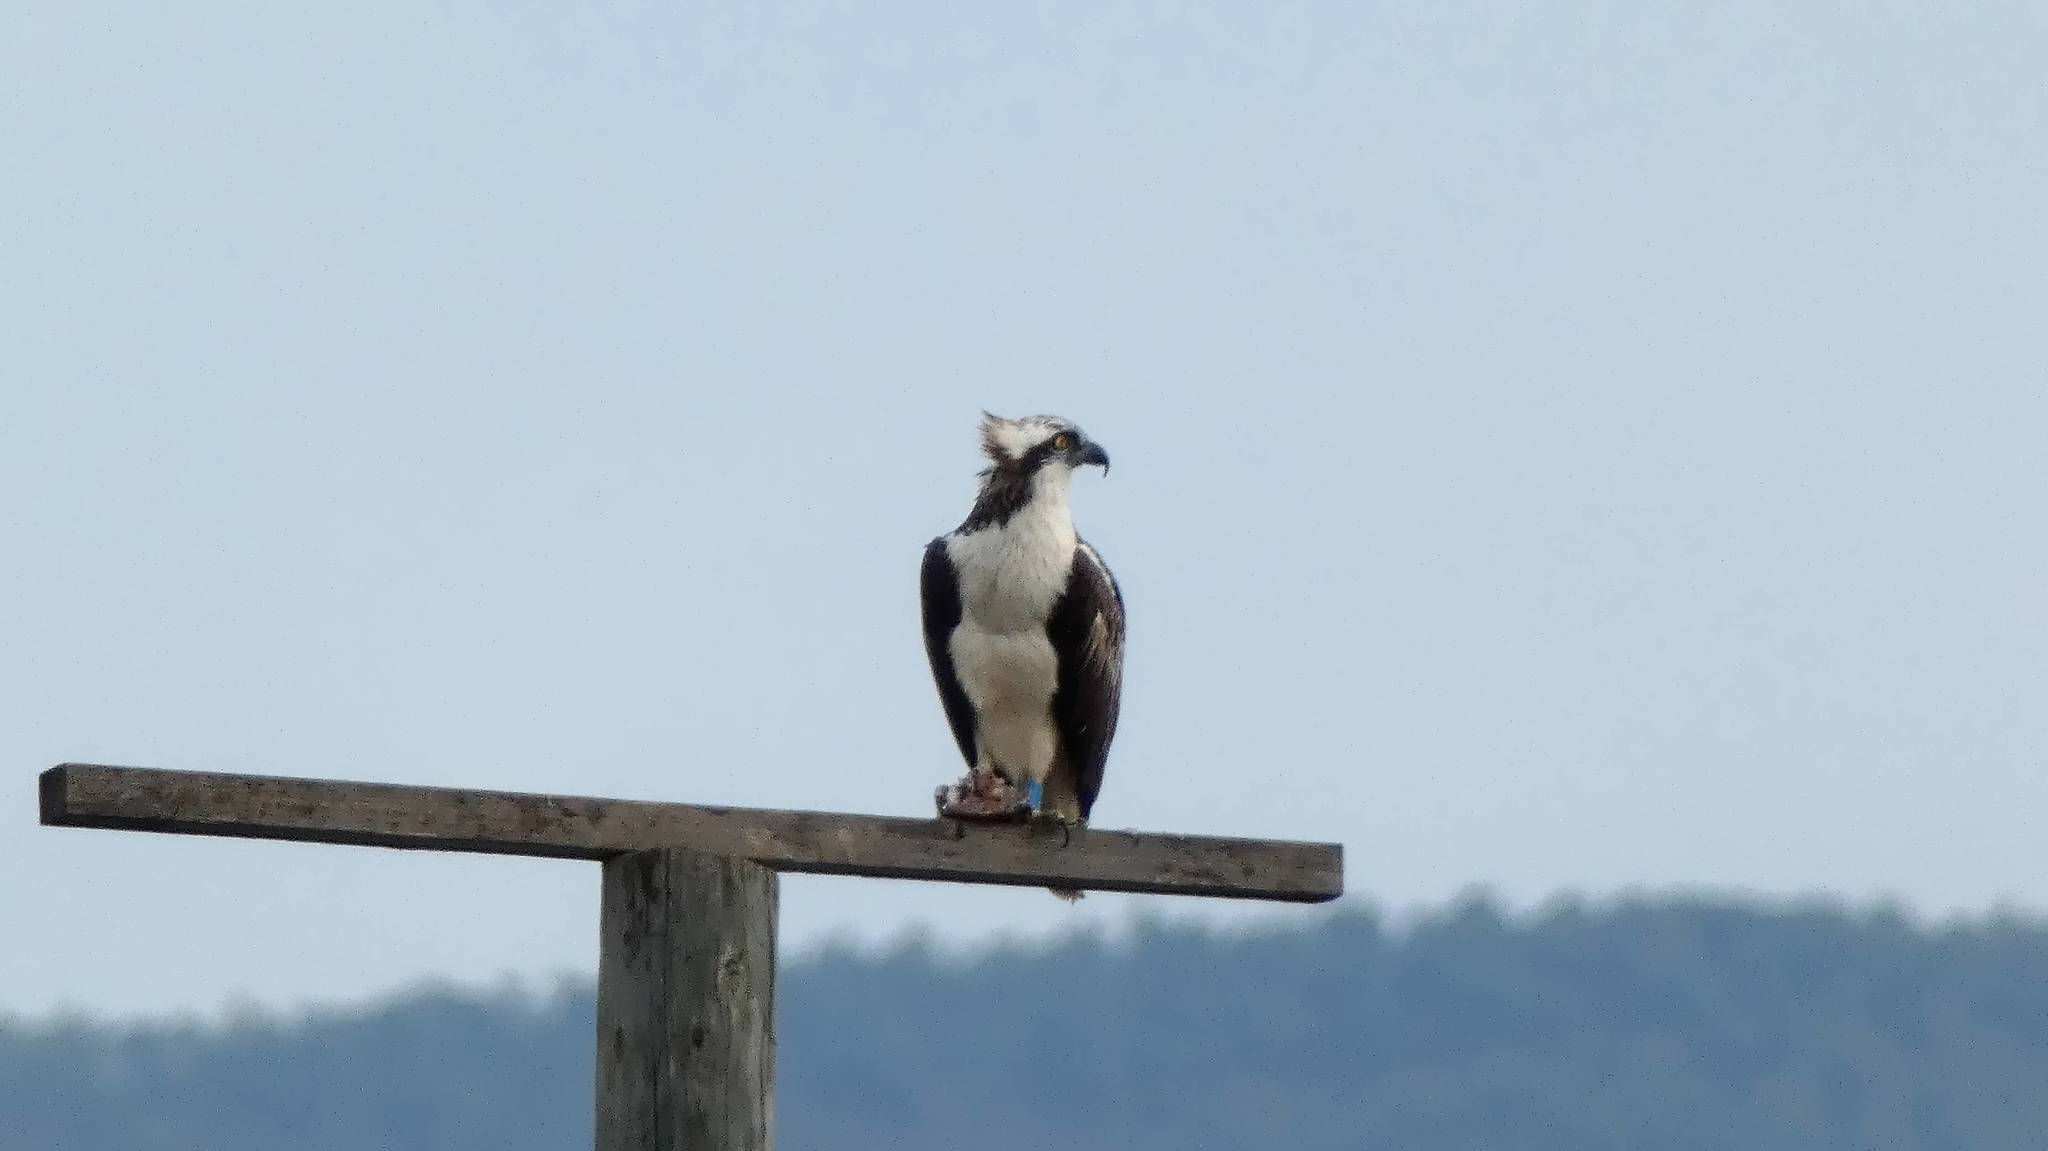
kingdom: Animalia
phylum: Chordata
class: Aves
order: Accipitriformes
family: Pandionidae
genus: Pandion
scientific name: Pandion haliaetus
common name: Osprey
